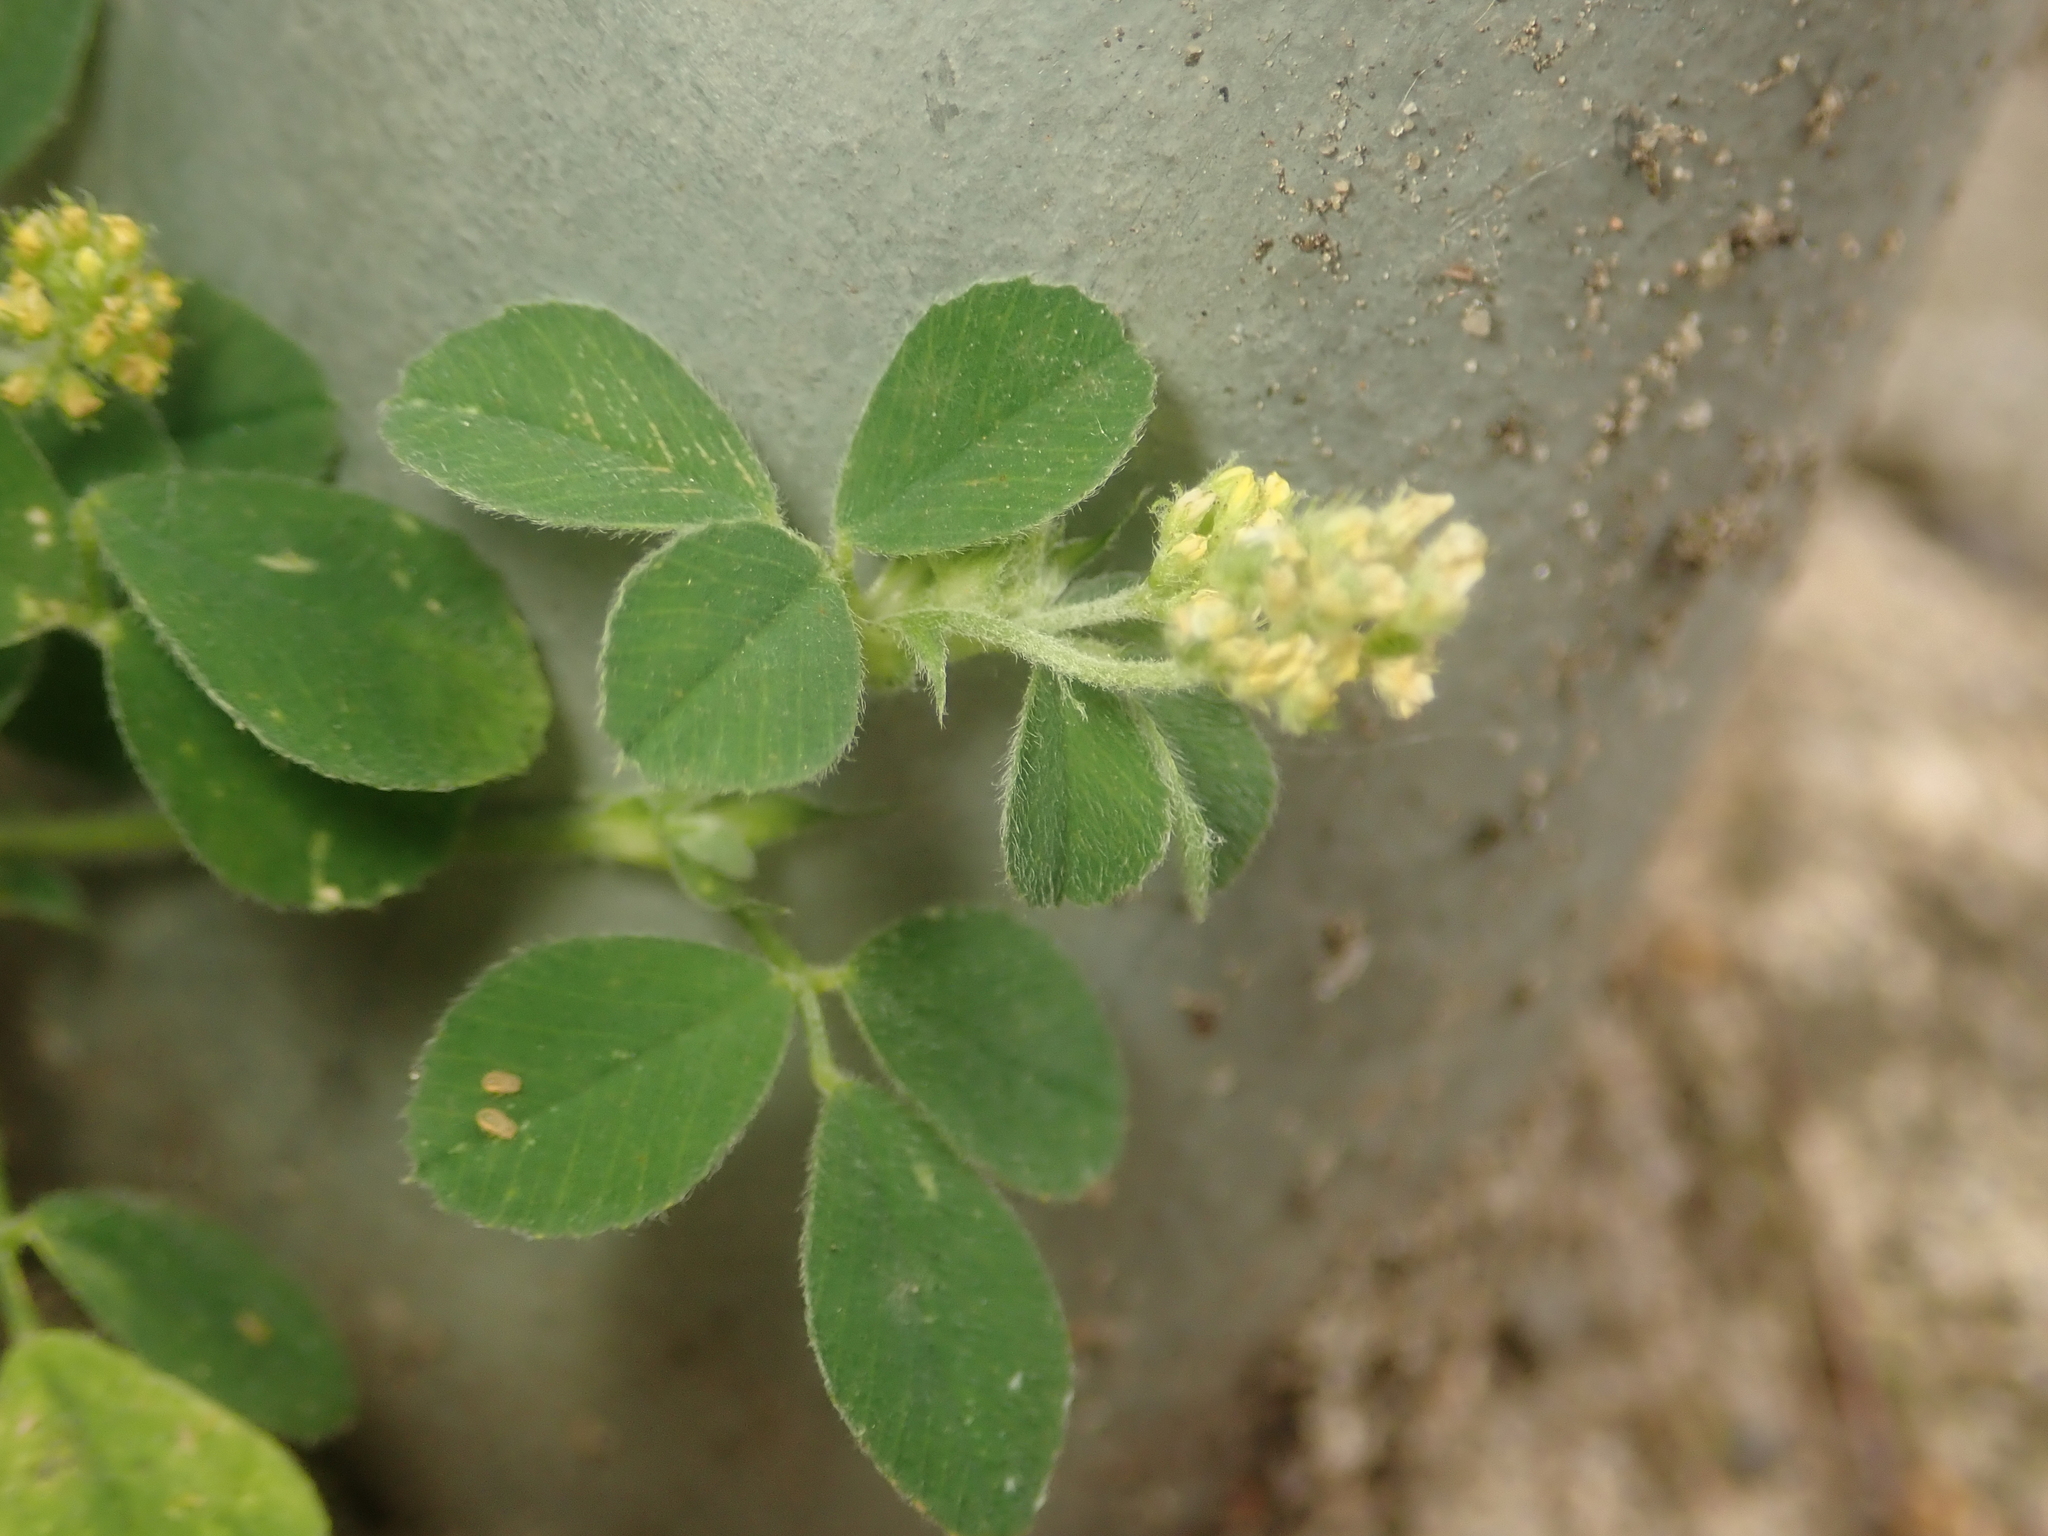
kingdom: Plantae
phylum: Tracheophyta
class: Magnoliopsida
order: Fabales
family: Fabaceae
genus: Medicago
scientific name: Medicago lupulina
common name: Black medick
